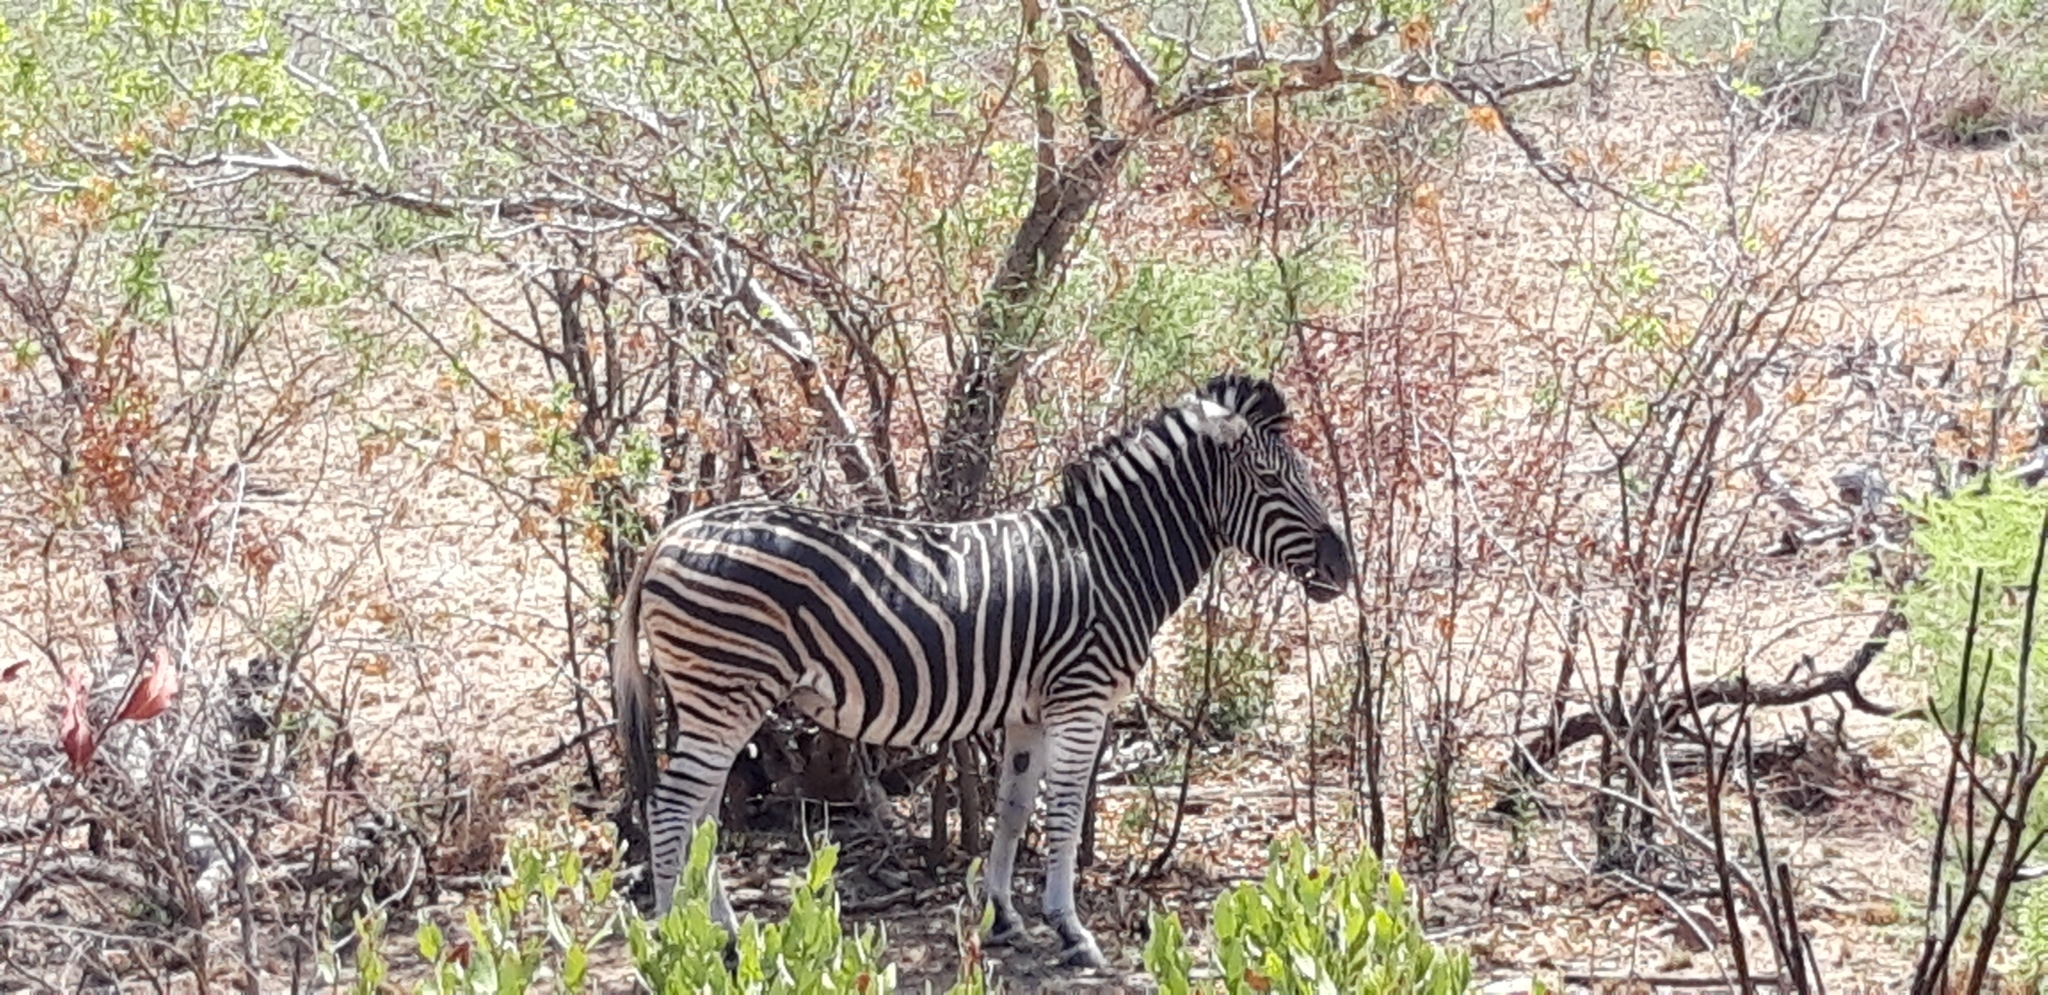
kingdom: Animalia
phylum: Chordata
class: Mammalia
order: Perissodactyla
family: Equidae
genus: Equus
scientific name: Equus quagga
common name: Plains zebra
